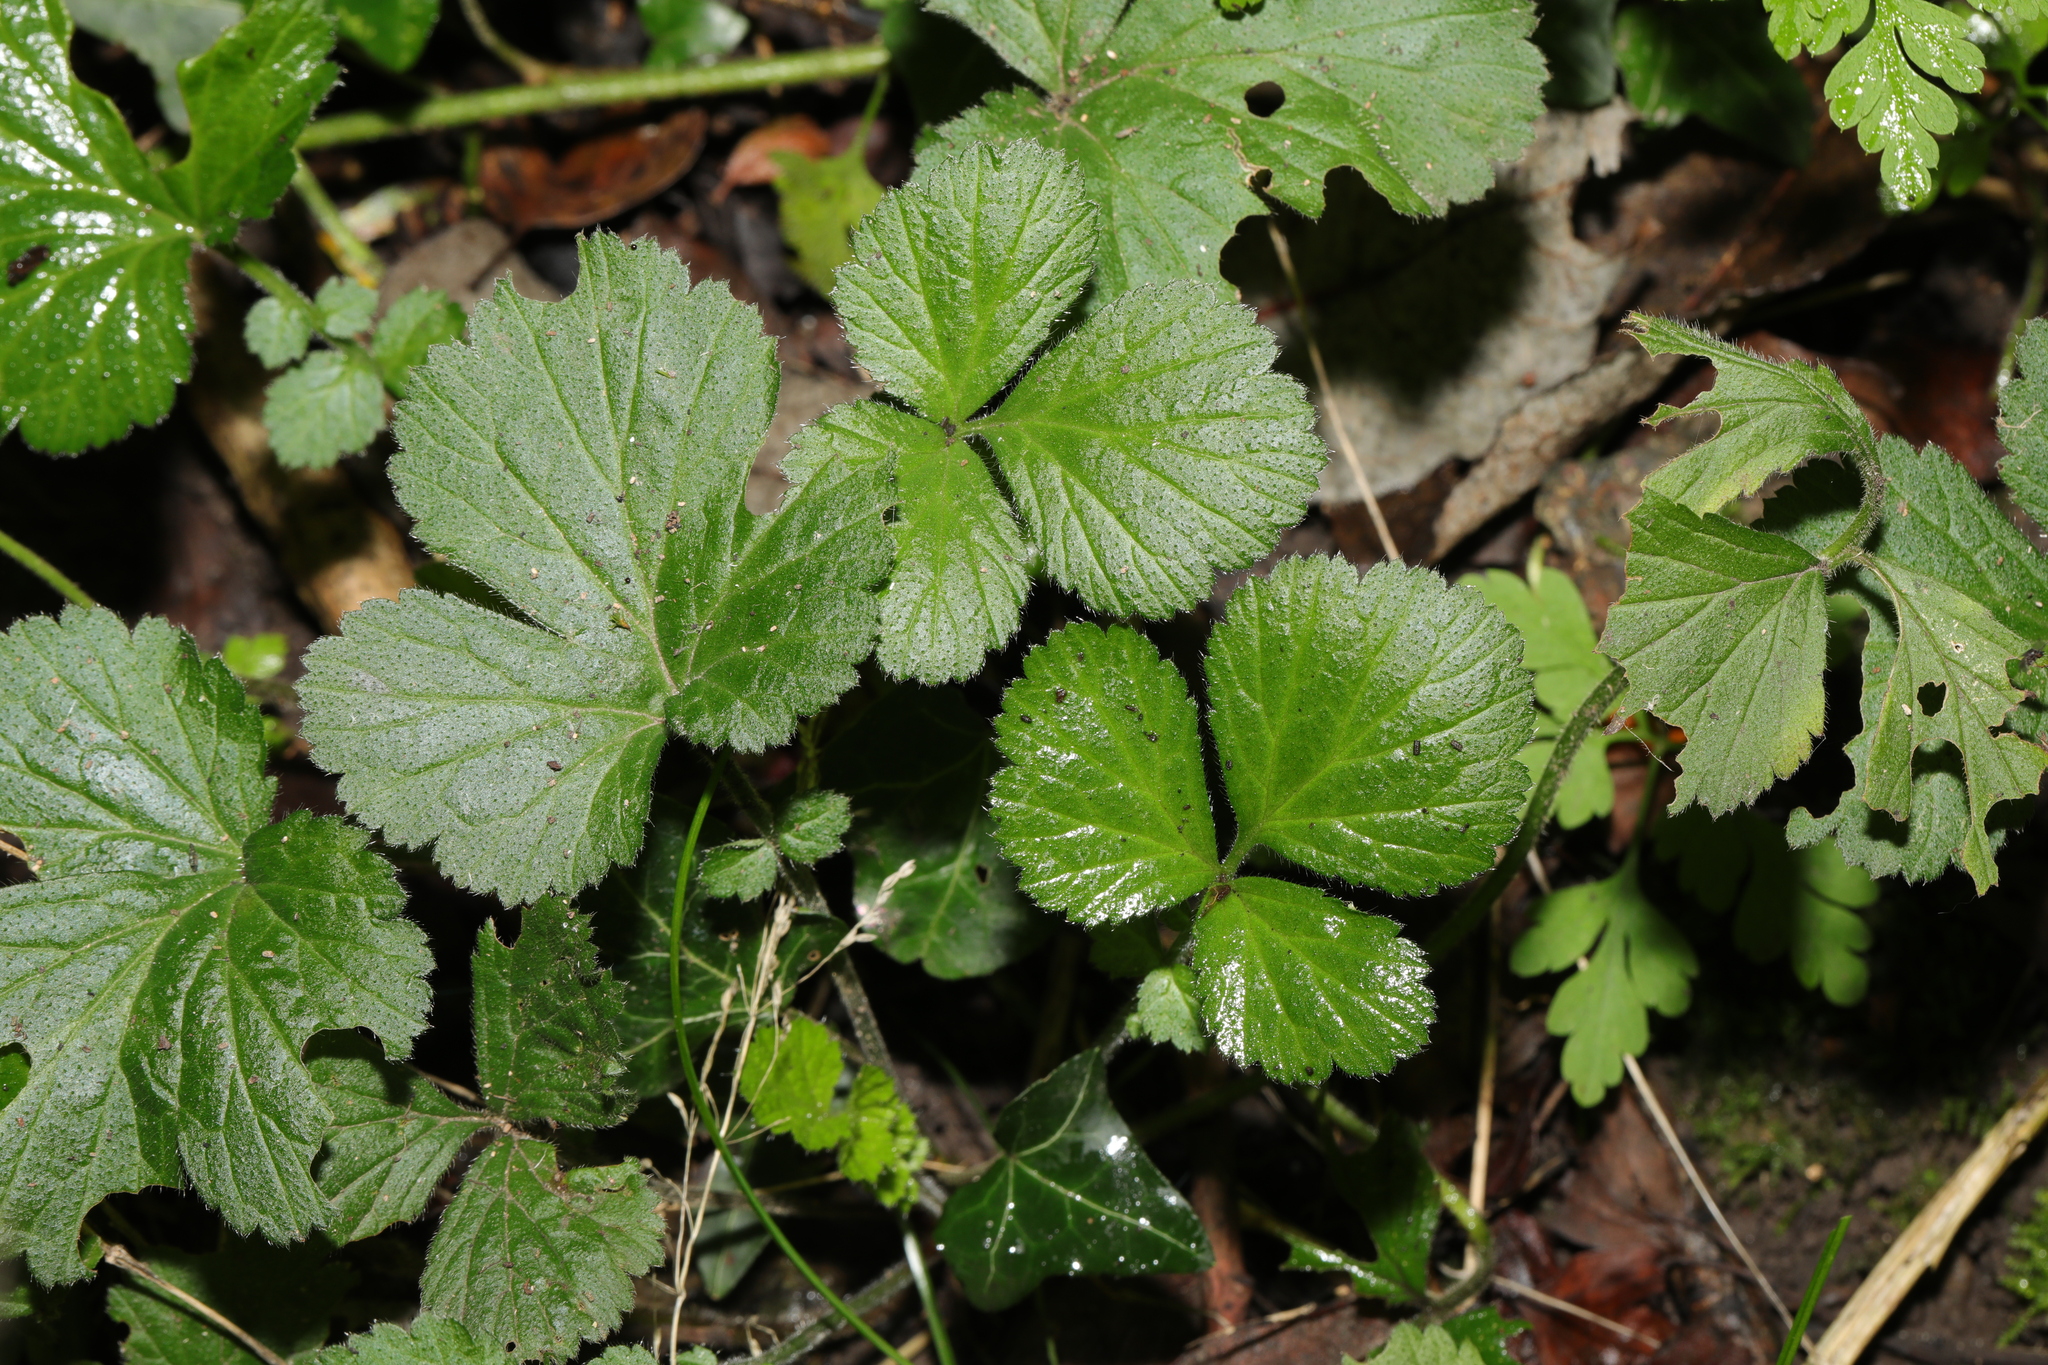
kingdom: Plantae
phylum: Tracheophyta
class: Magnoliopsida
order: Rosales
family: Rosaceae
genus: Geum
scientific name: Geum urbanum
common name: Wood avens
